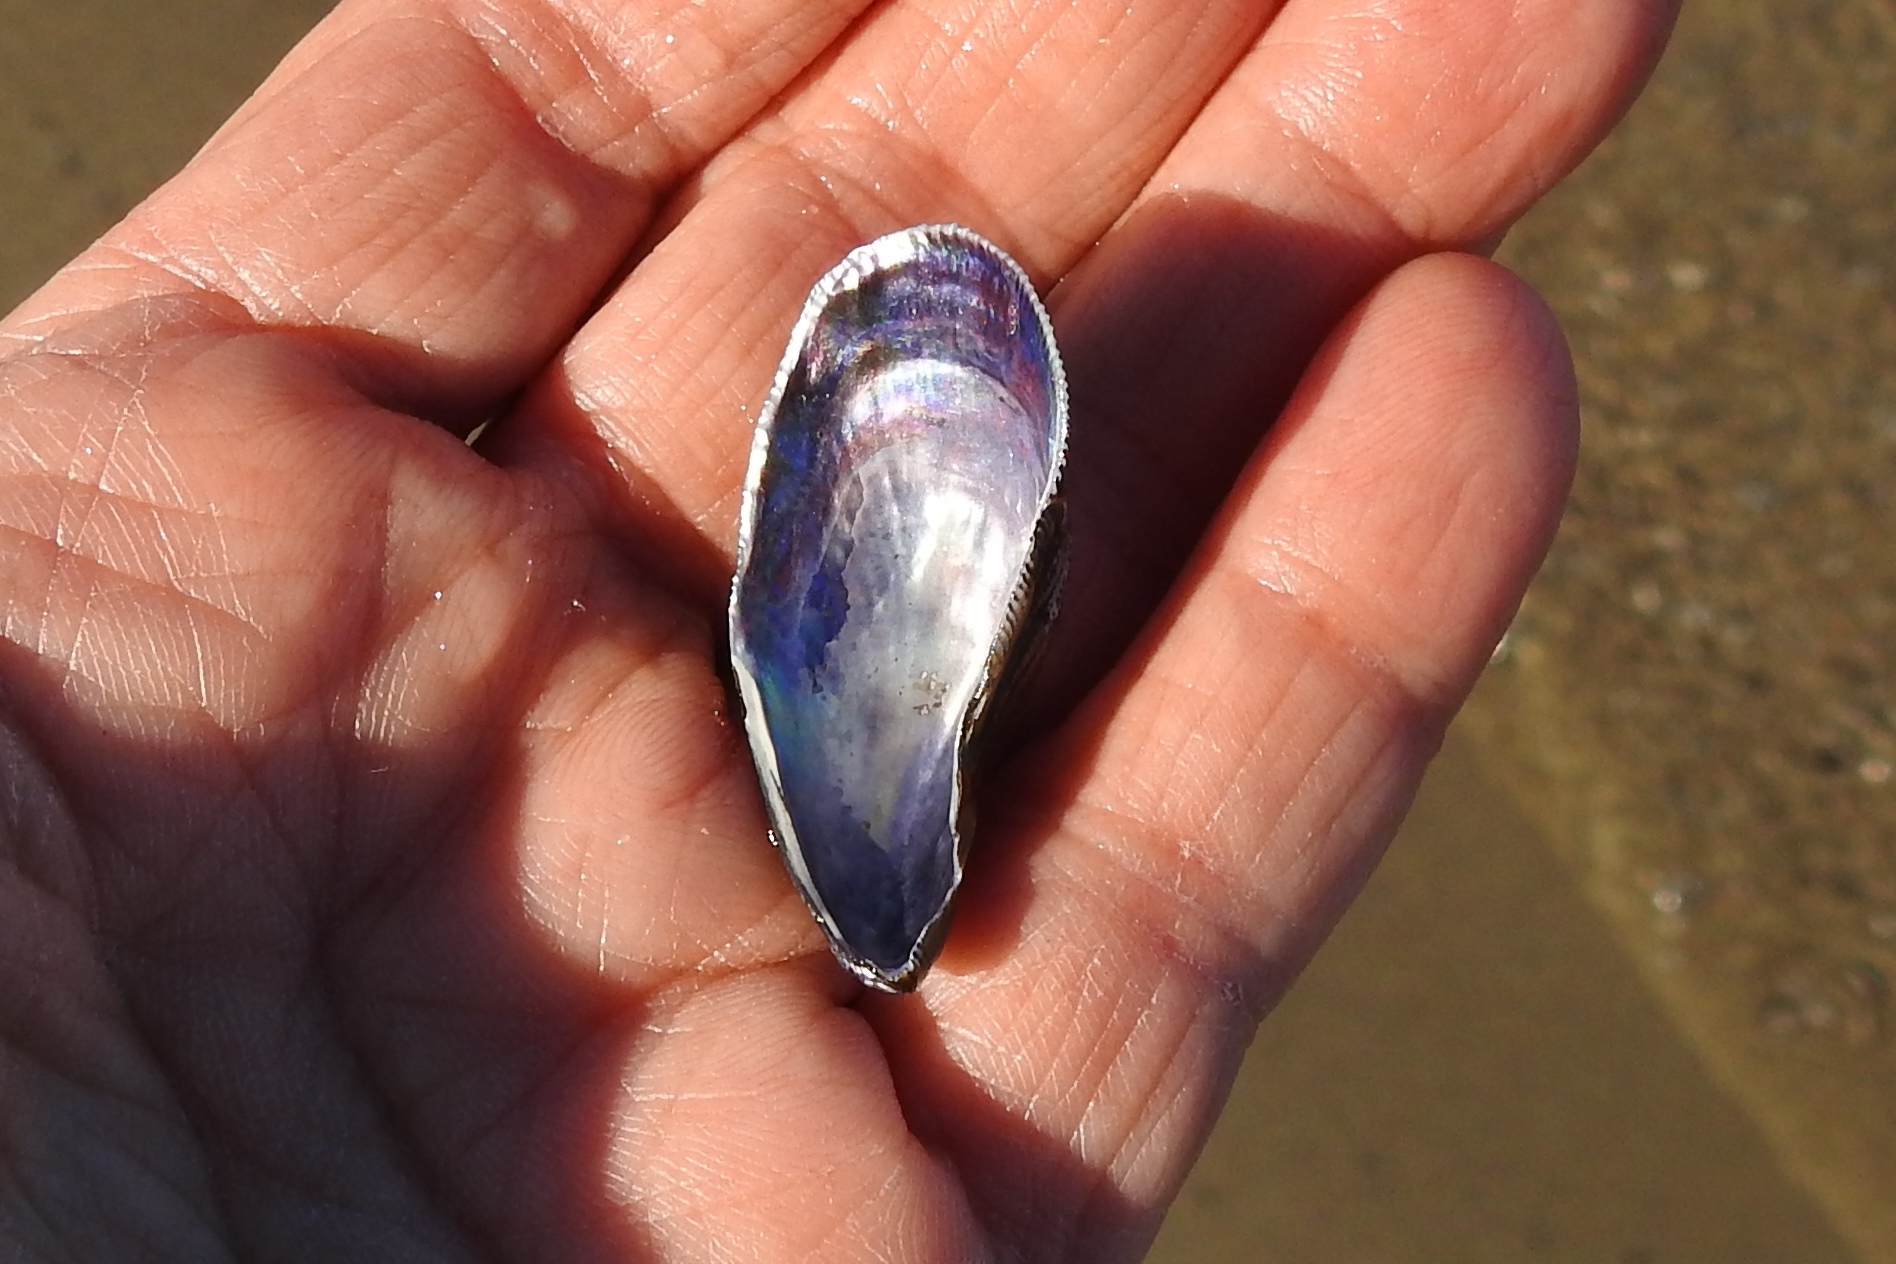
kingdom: Animalia
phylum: Mollusca
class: Bivalvia
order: Mytilida
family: Mytilidae
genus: Ischadium
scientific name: Ischadium recurvum
